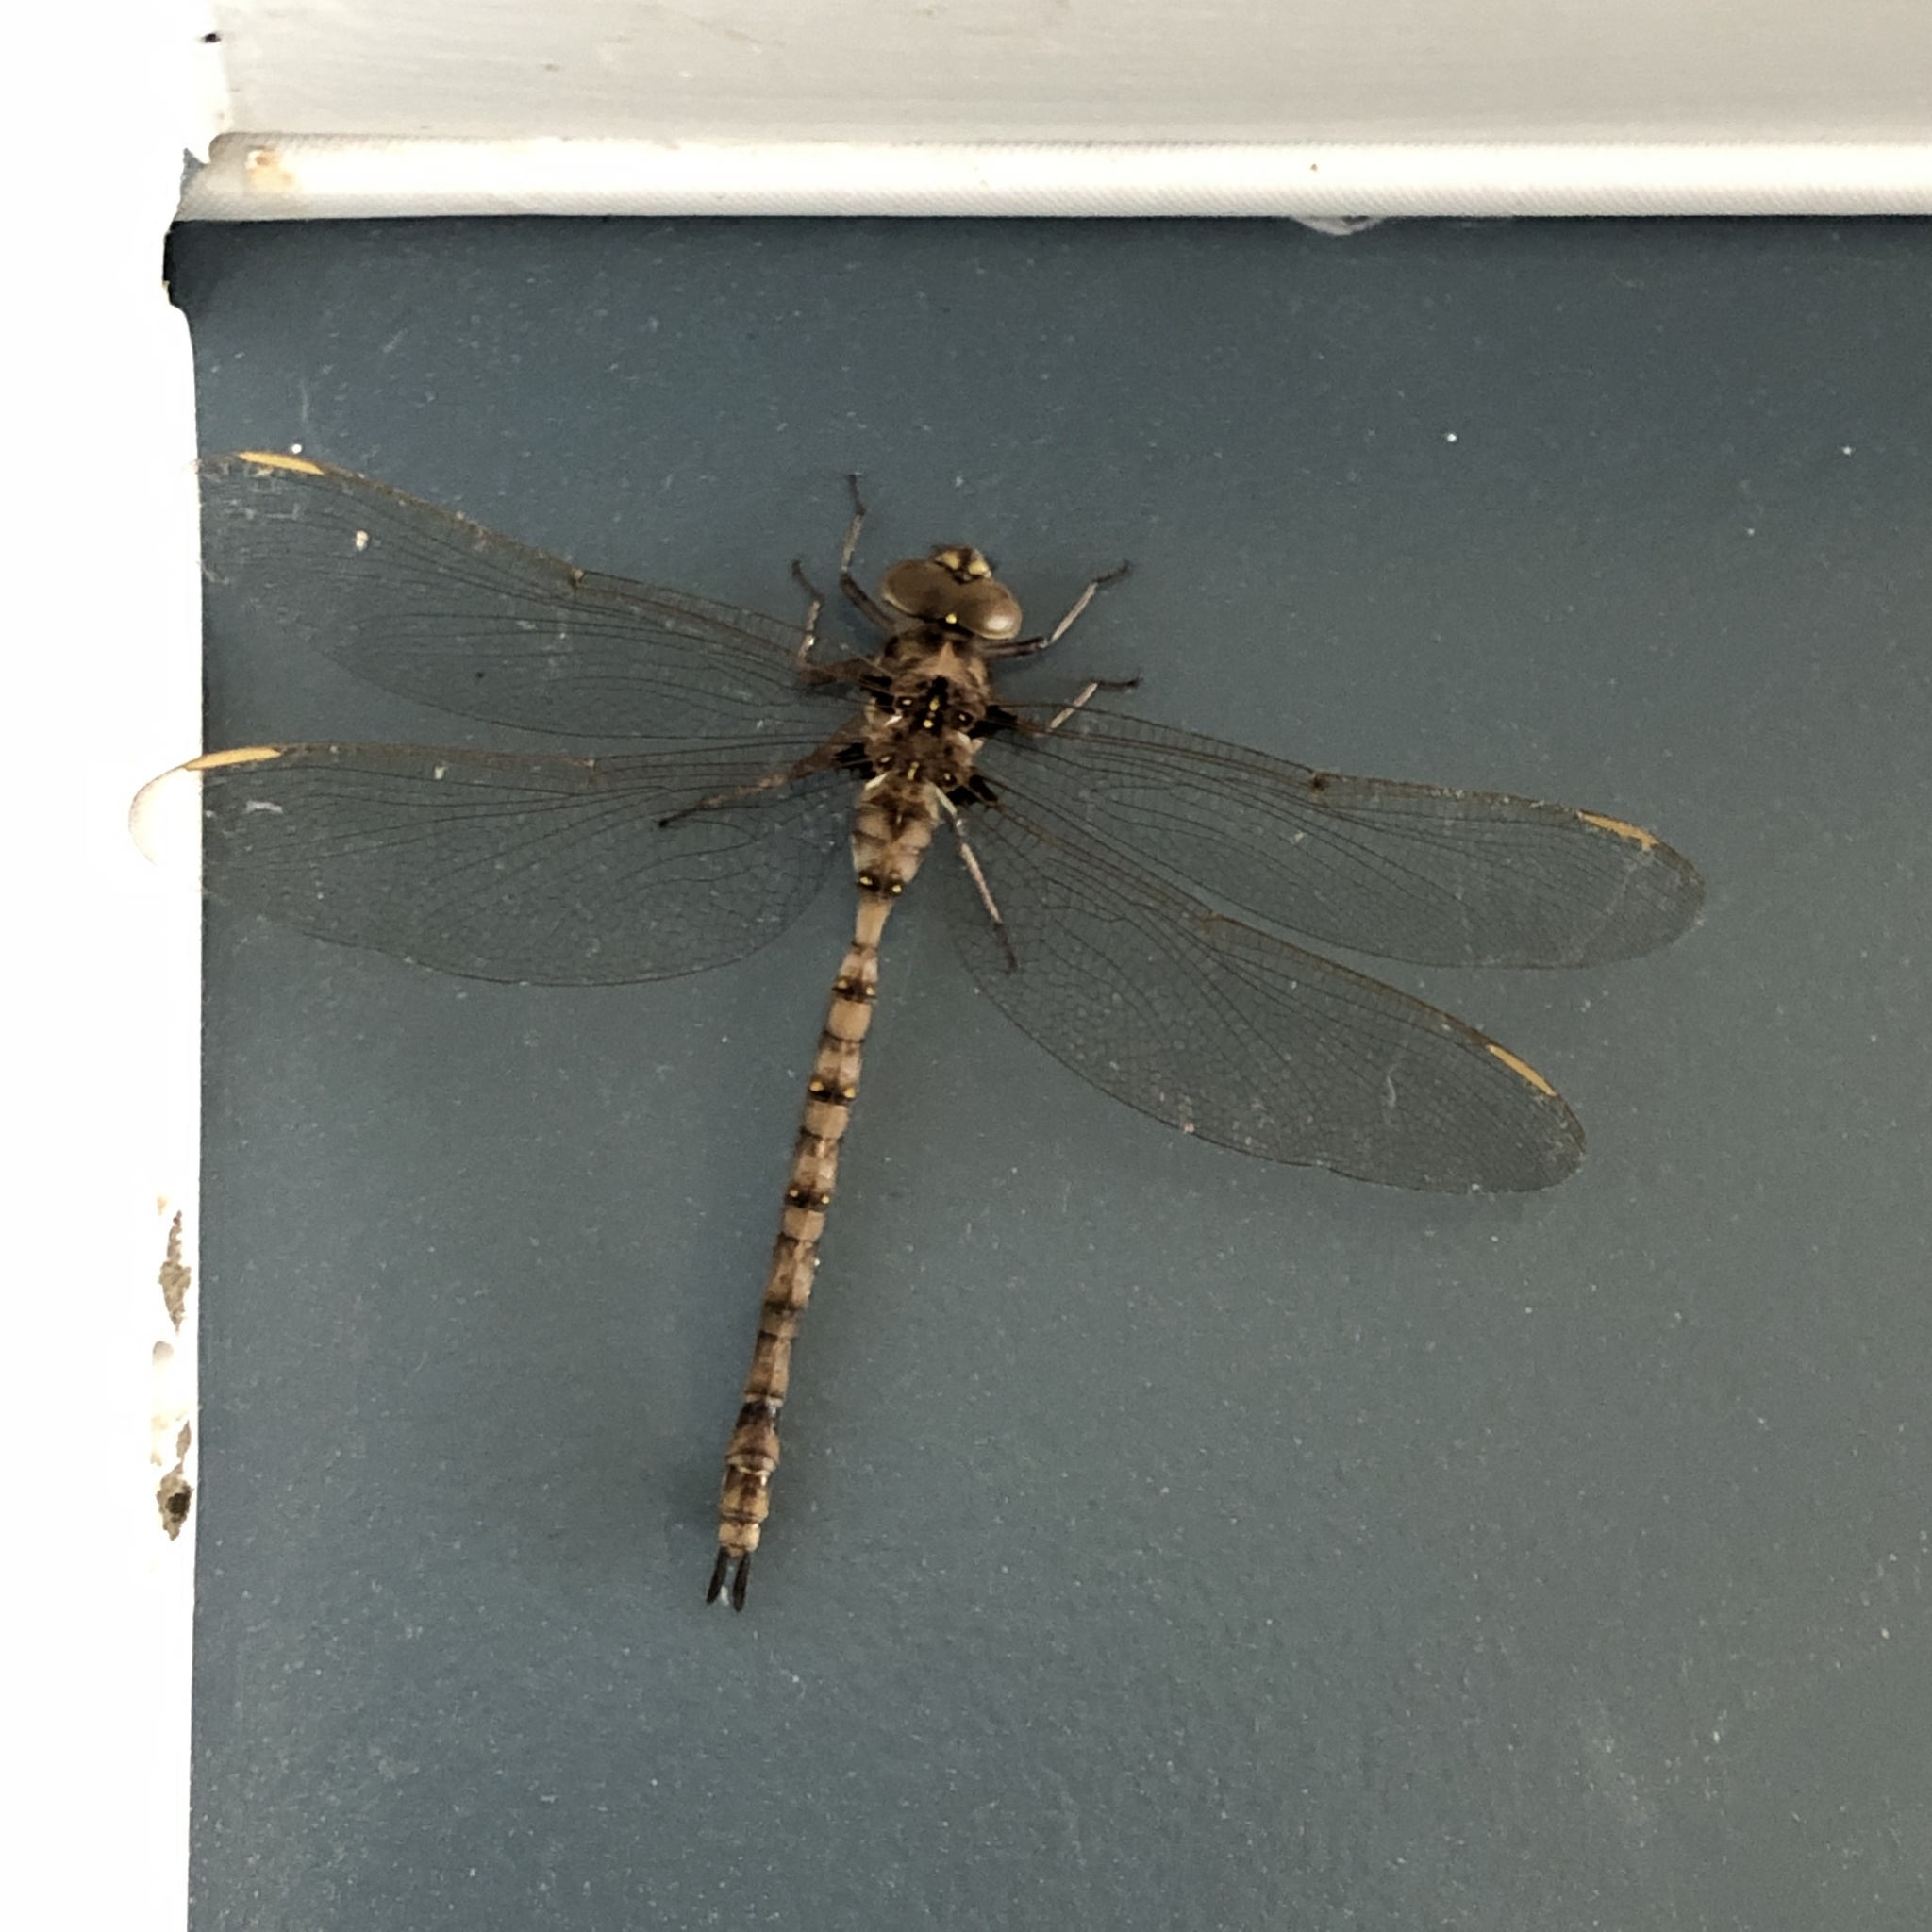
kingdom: Animalia
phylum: Arthropoda
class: Insecta
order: Odonata
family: Aeshnidae
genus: Boyeria
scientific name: Boyeria vinosa
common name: Fawn darner
